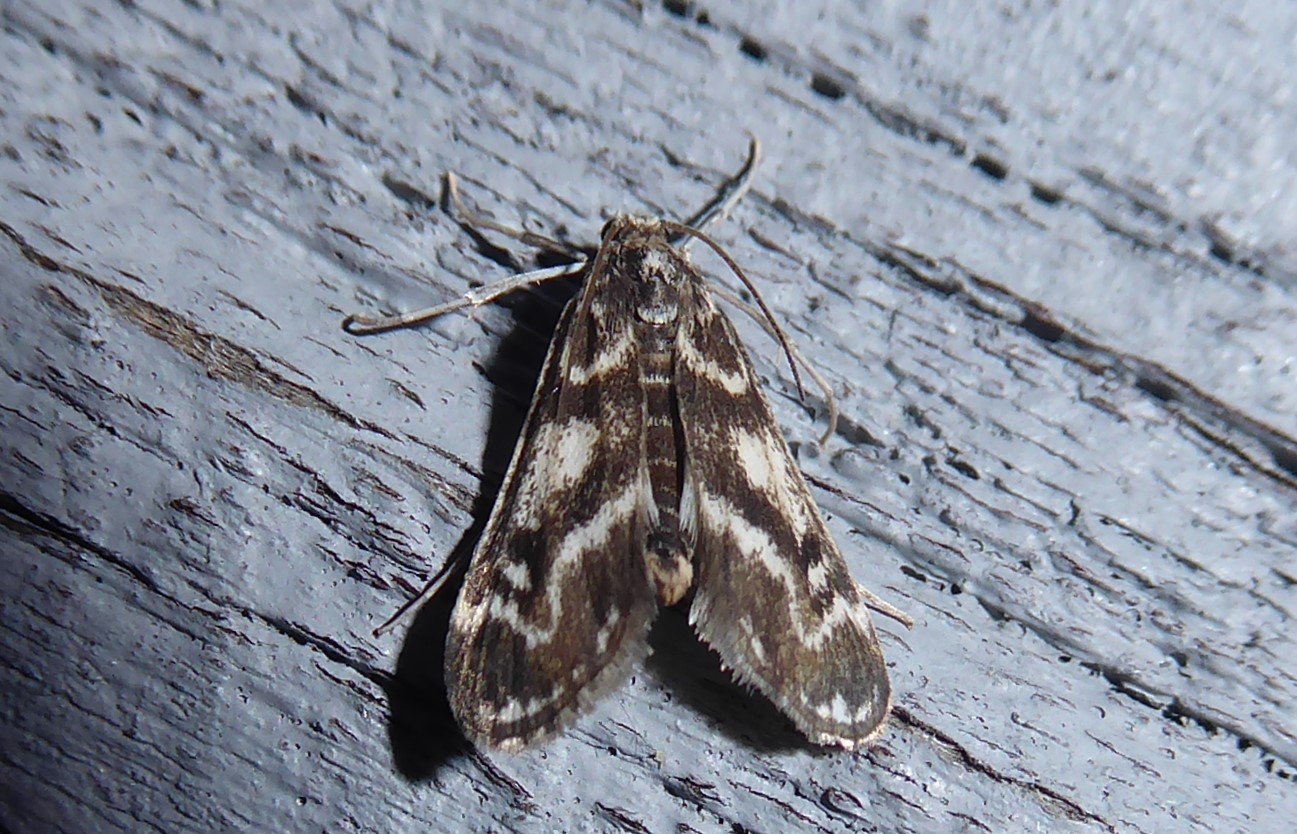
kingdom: Animalia
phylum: Arthropoda
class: Insecta
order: Lepidoptera
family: Crambidae
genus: Hygraula
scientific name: Hygraula nitens
